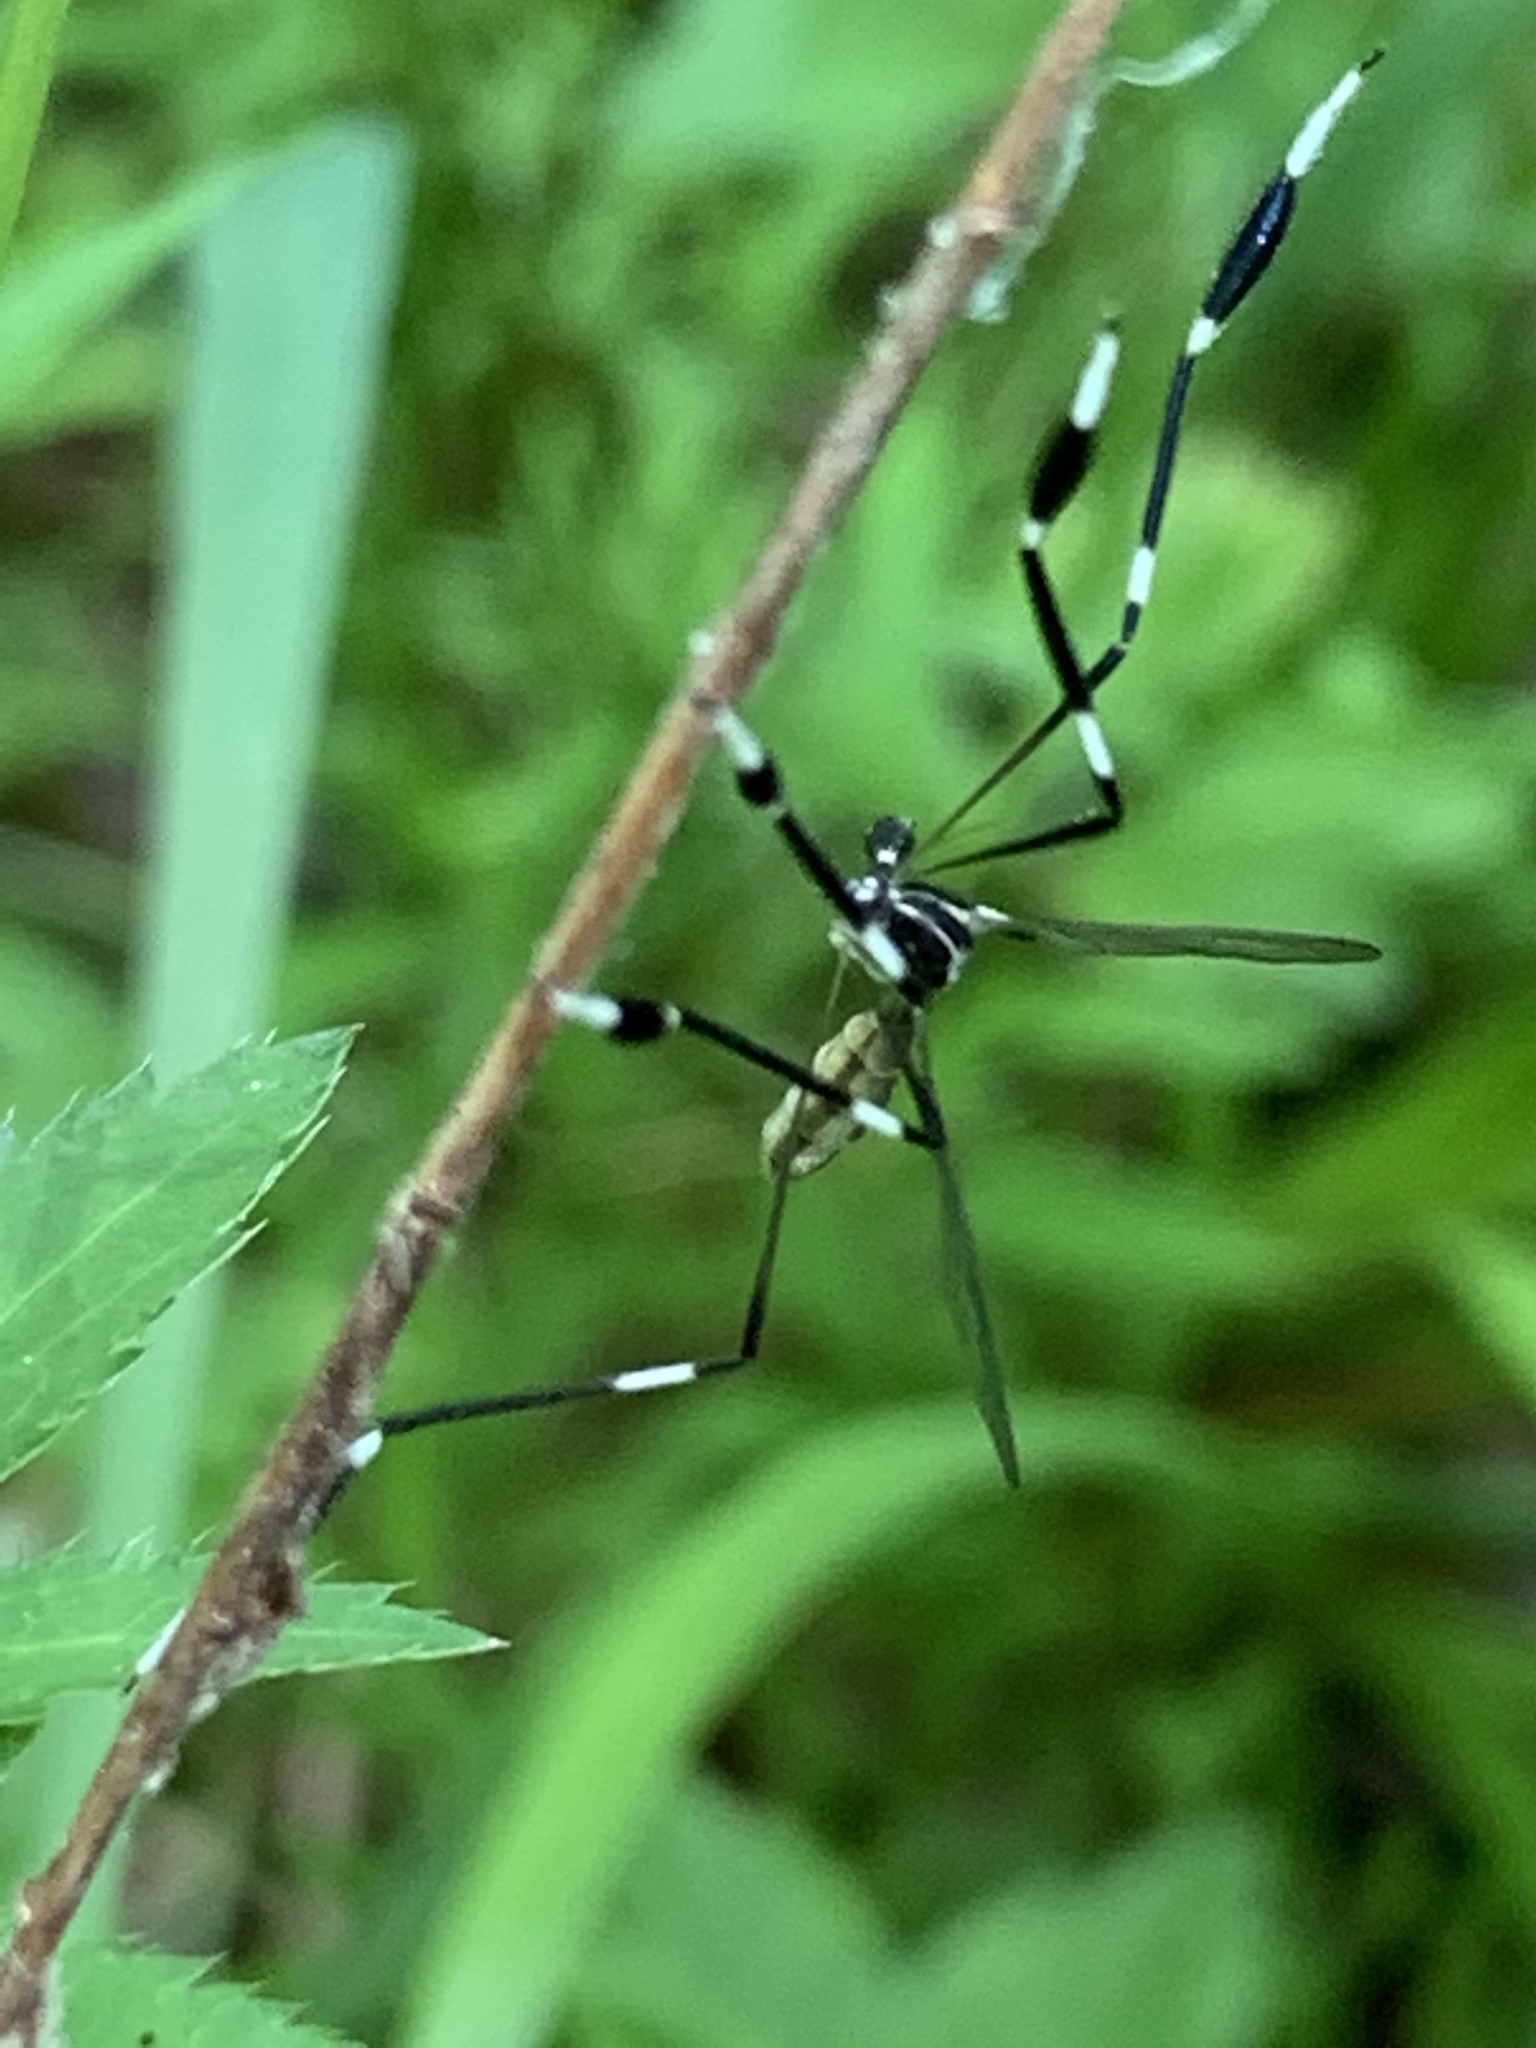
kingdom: Animalia
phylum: Arthropoda
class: Insecta
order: Diptera
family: Ptychopteridae
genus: Bittacomorpha
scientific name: Bittacomorpha clavipes
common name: Eastern phantom crane fly
